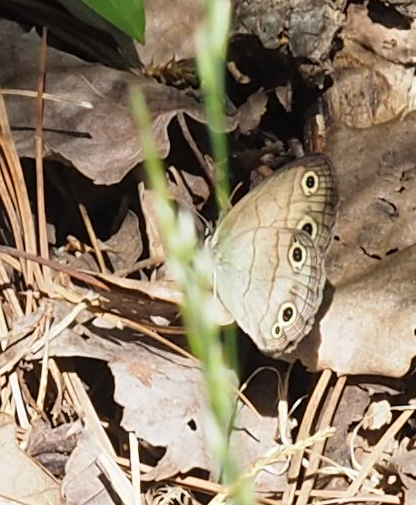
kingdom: Animalia
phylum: Arthropoda
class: Insecta
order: Lepidoptera
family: Nymphalidae
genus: Euptychia
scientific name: Euptychia cymela
